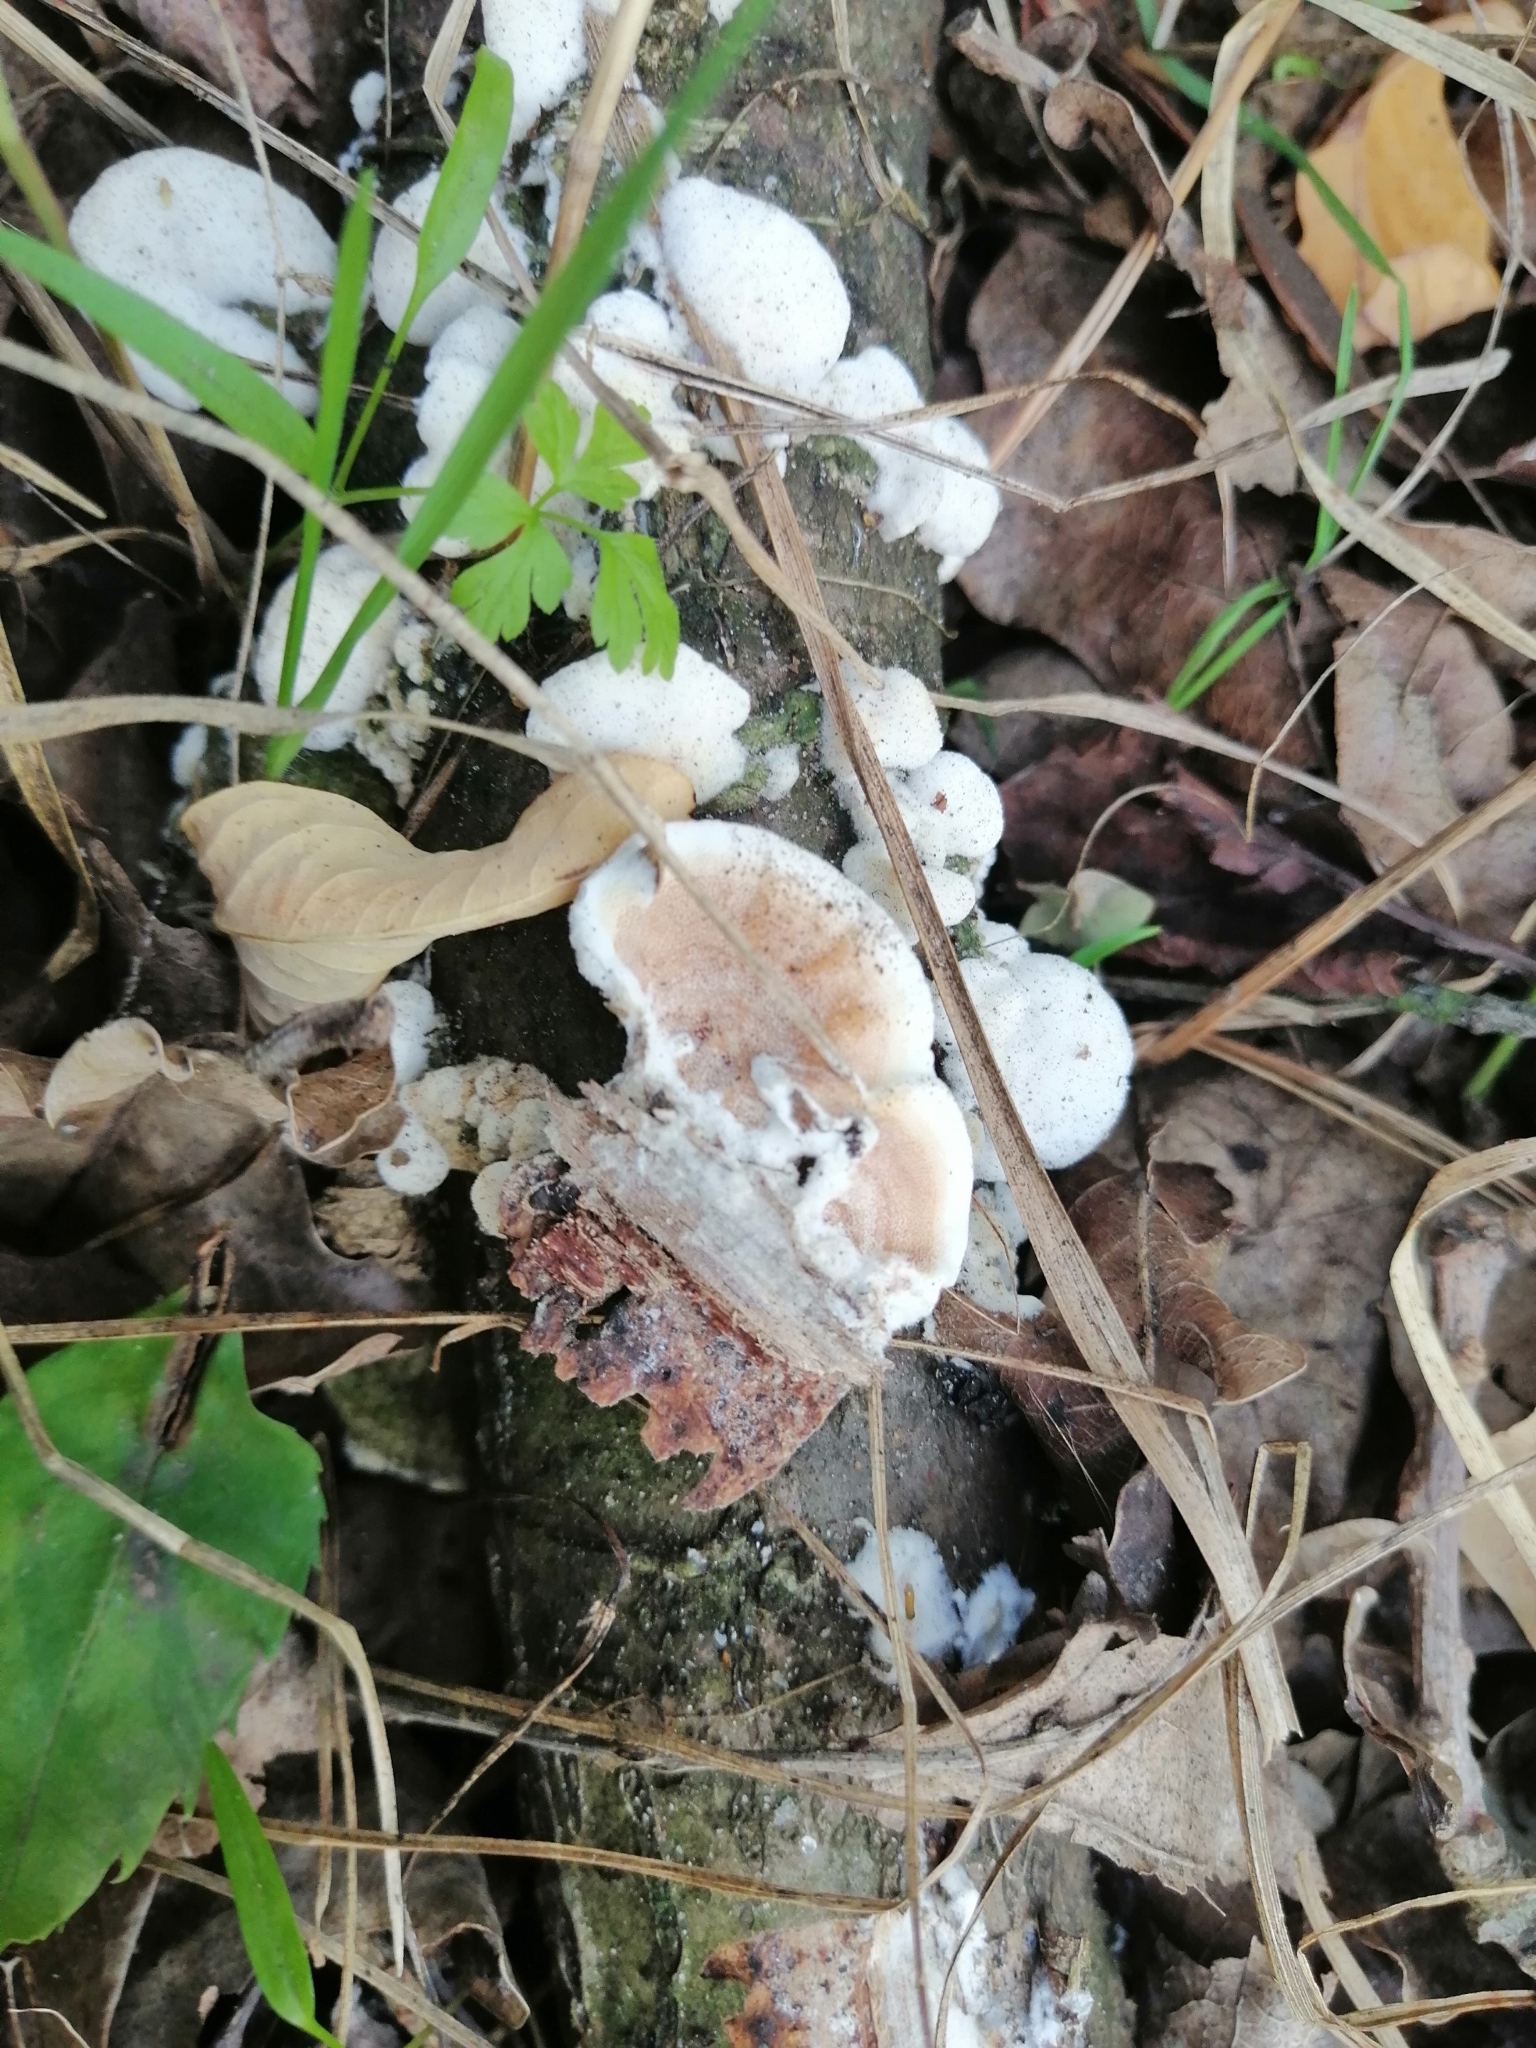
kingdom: Fungi
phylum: Basidiomycota
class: Agaricomycetes
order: Polyporales
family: Irpicaceae
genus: Vitreoporus
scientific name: Vitreoporus dichrous
